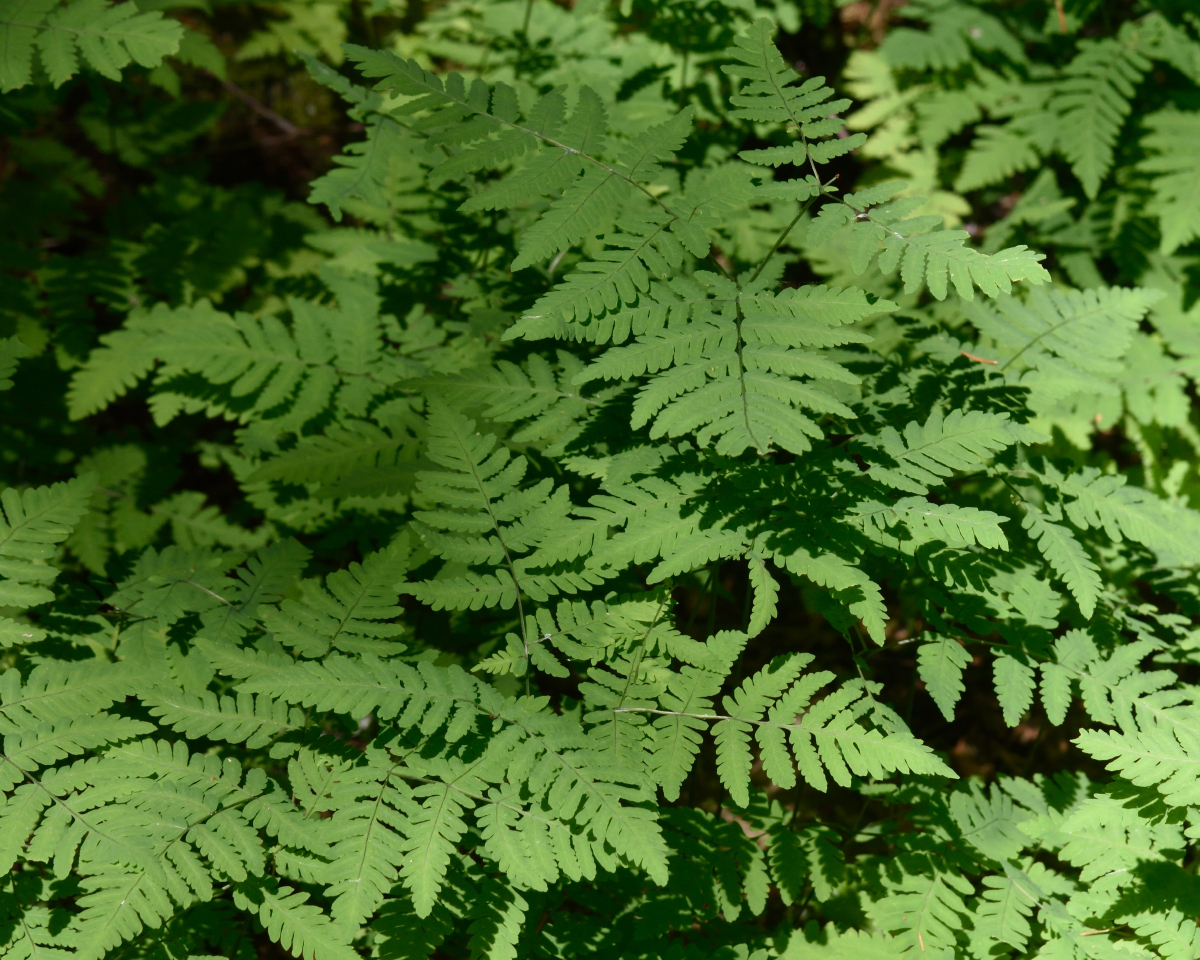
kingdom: Plantae
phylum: Tracheophyta
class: Polypodiopsida
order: Polypodiales
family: Cystopteridaceae
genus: Gymnocarpium
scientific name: Gymnocarpium dryopteris
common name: Oak fern
